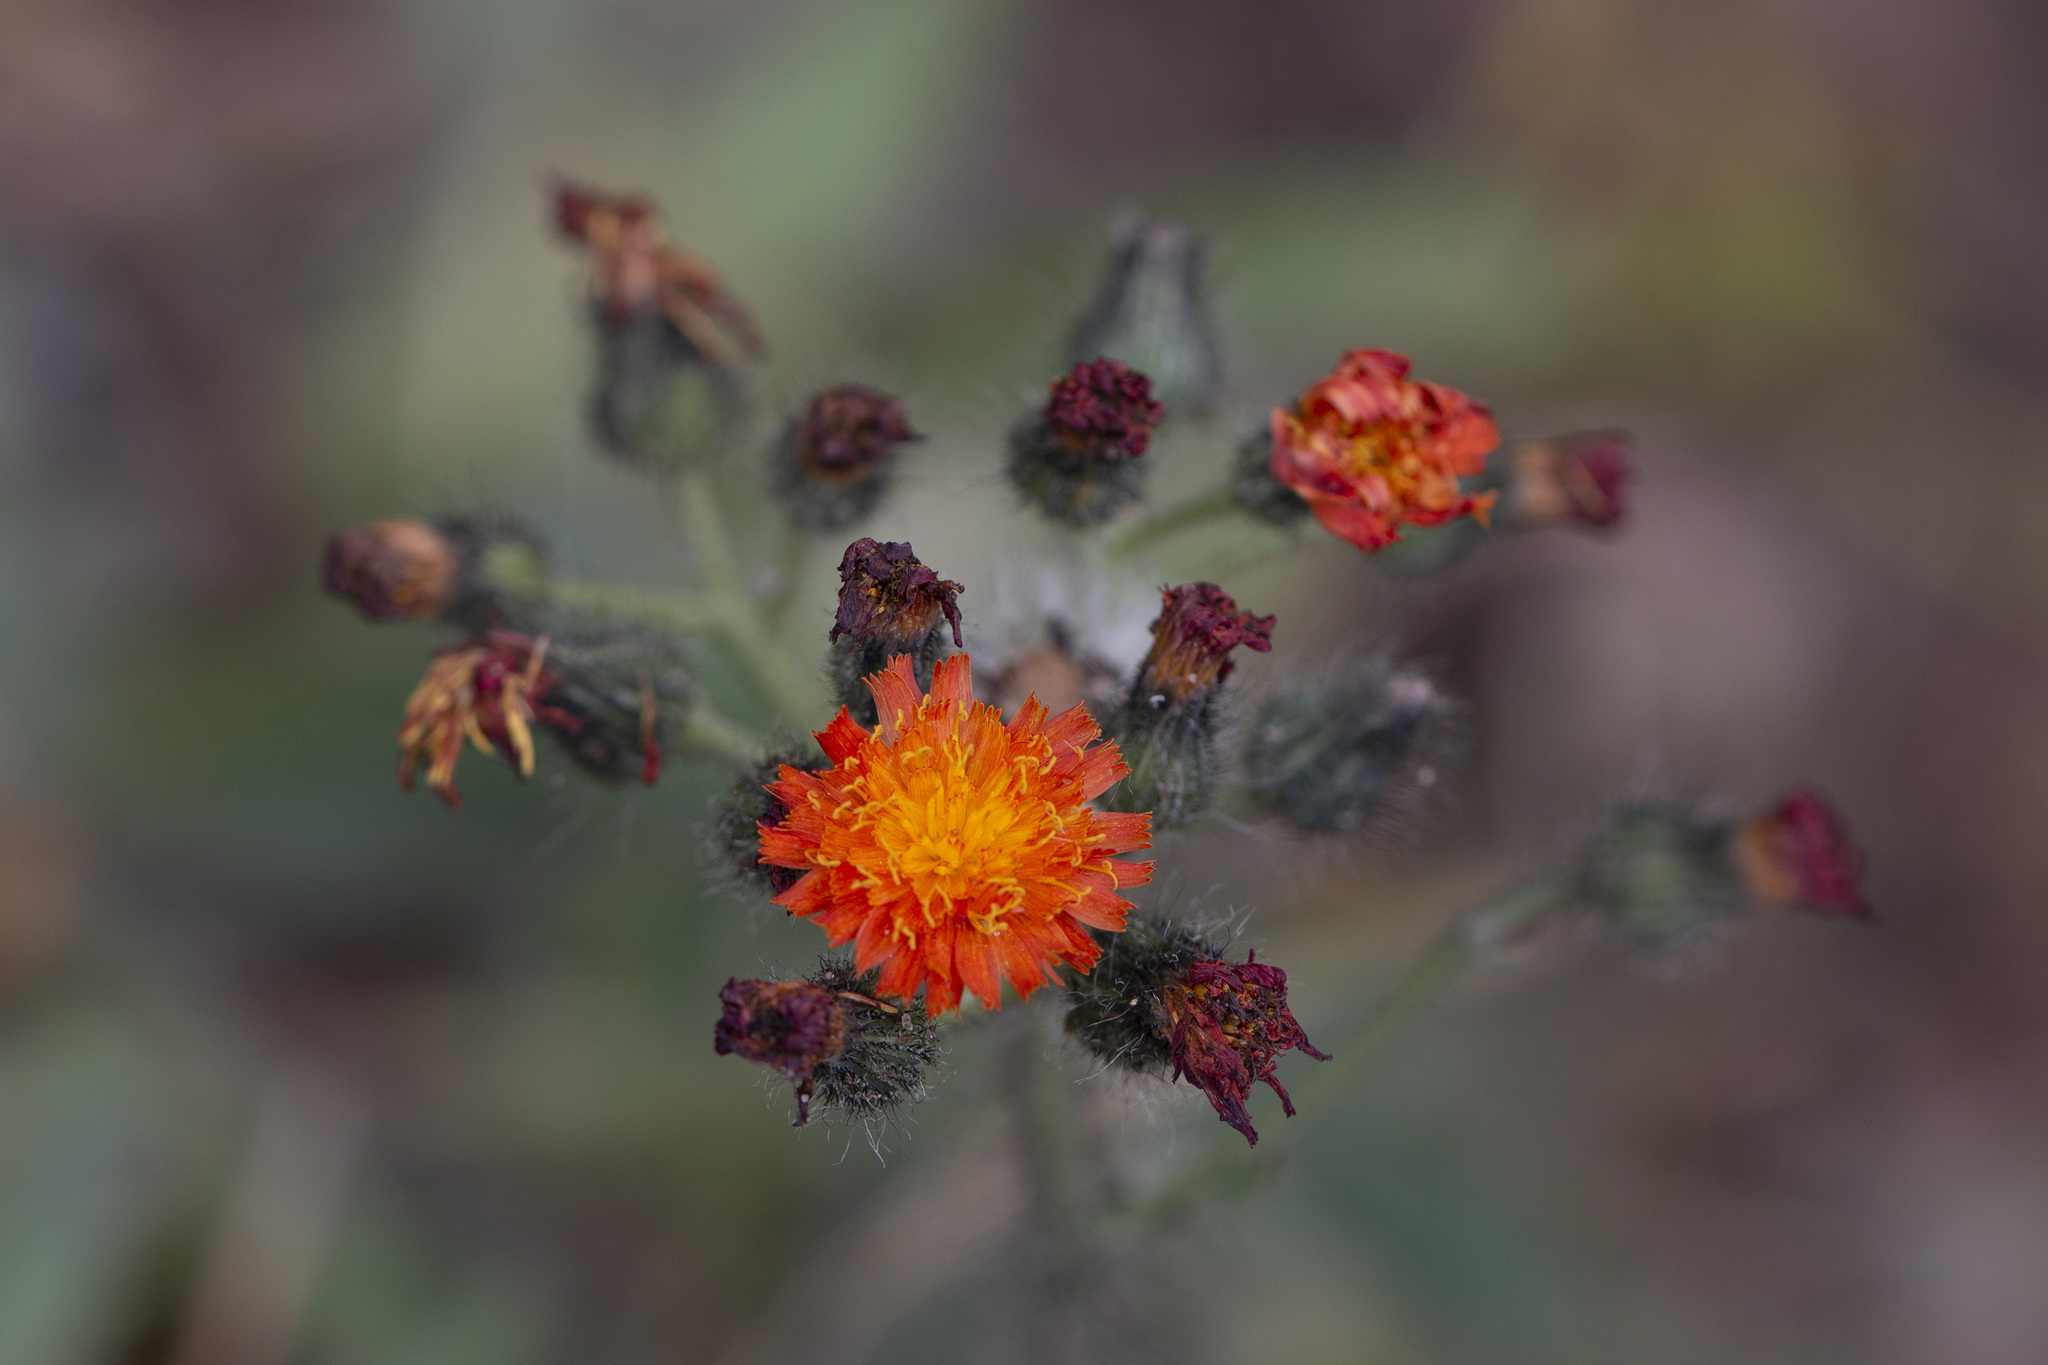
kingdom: Plantae
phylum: Tracheophyta
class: Magnoliopsida
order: Asterales
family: Asteraceae
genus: Pilosella
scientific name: Pilosella aurantiaca
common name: Fox-and-cubs
